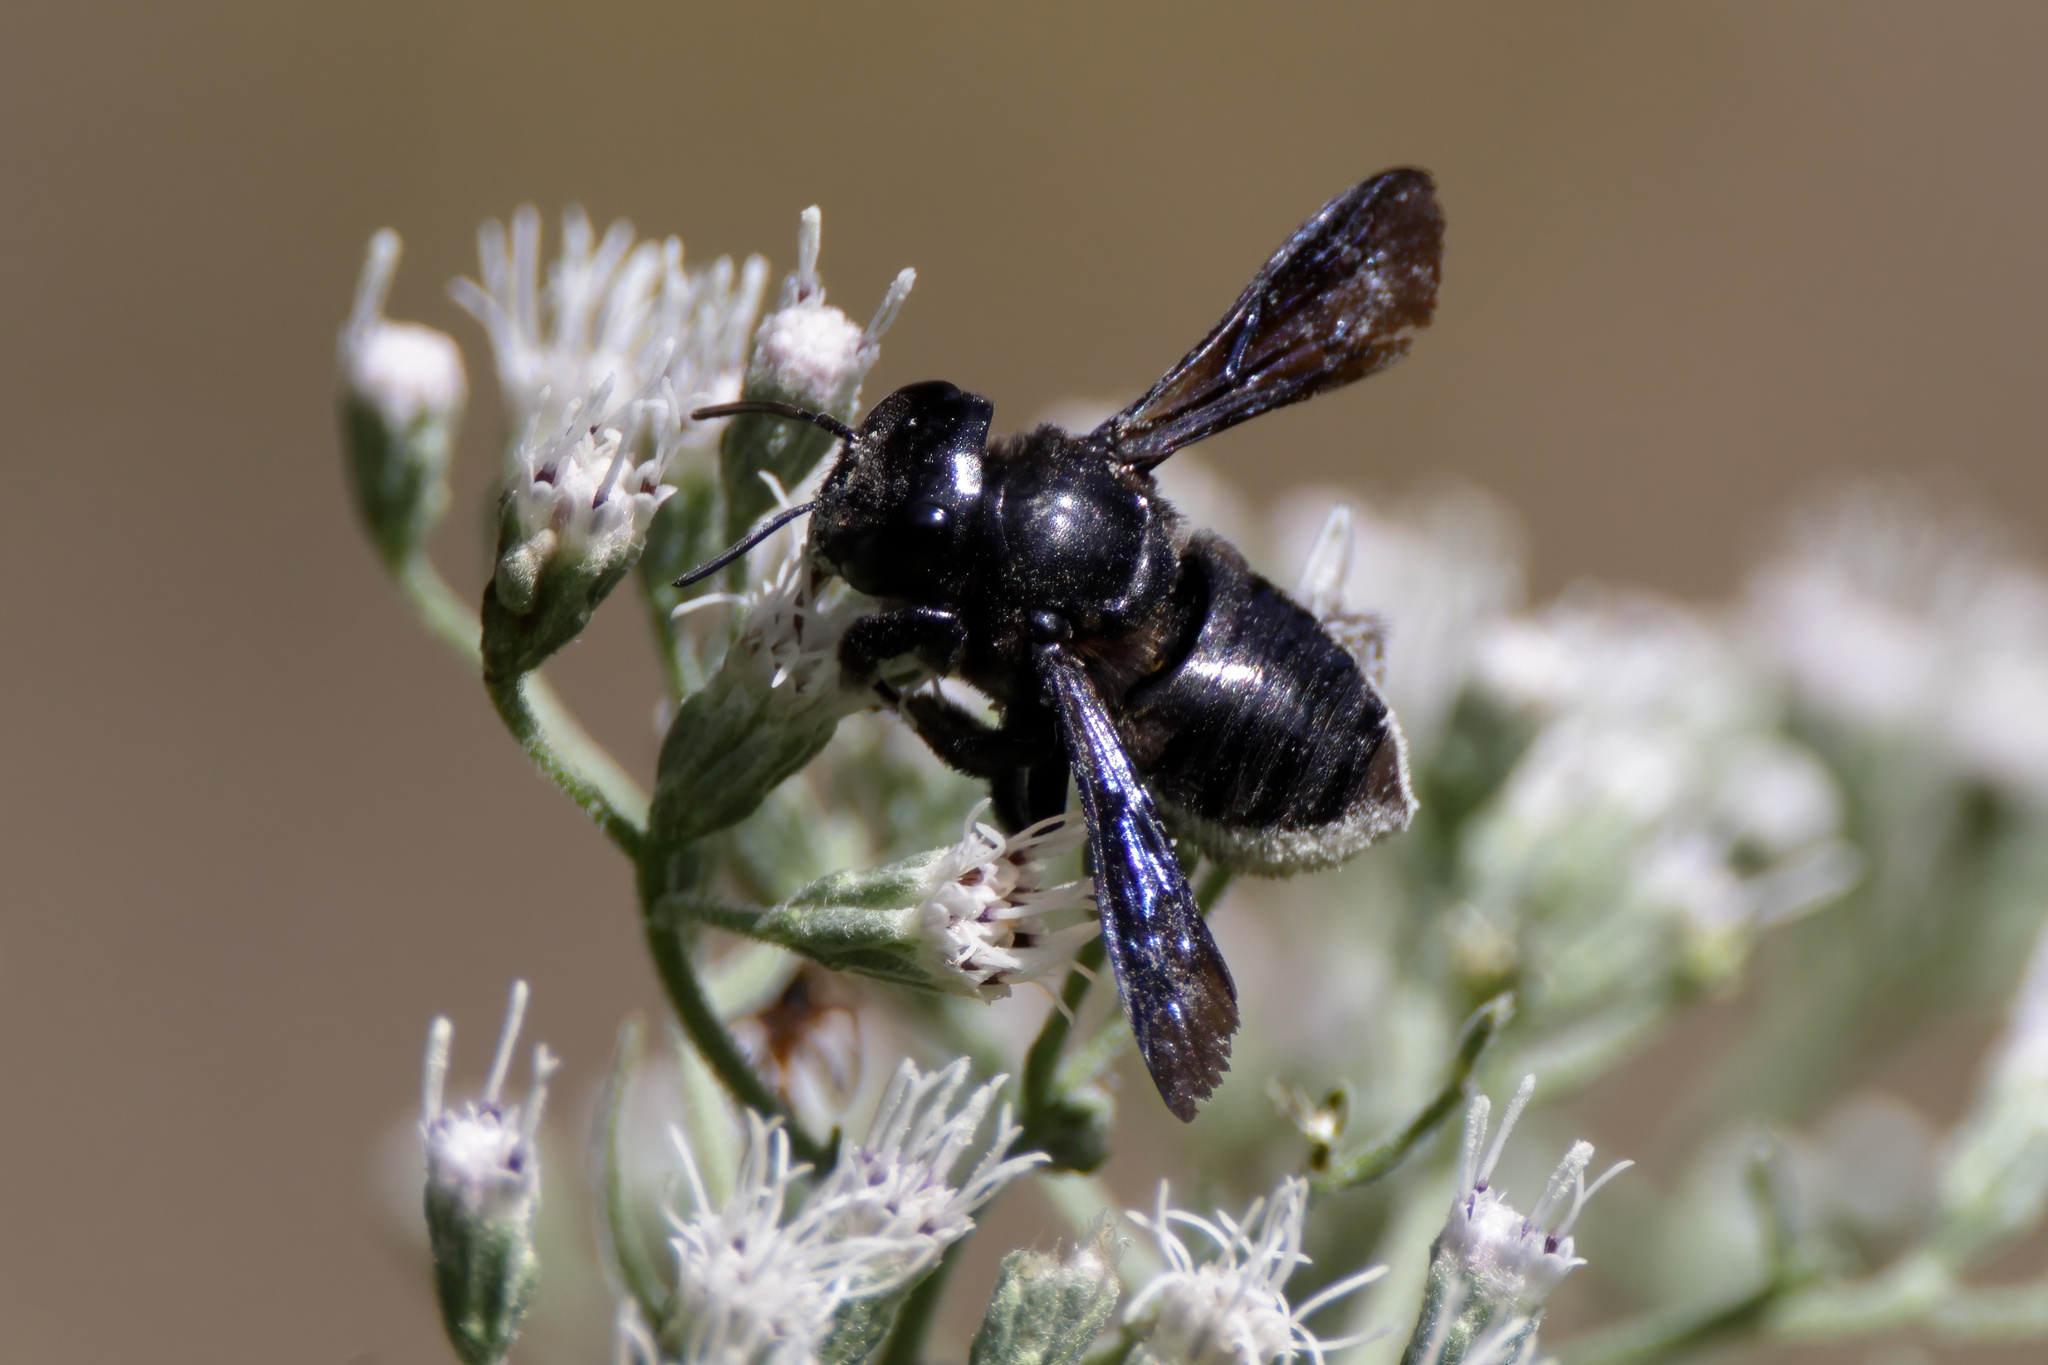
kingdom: Animalia
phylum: Arthropoda
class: Insecta
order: Hymenoptera
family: Megachilidae
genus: Megachile
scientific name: Megachile xylocopoides
